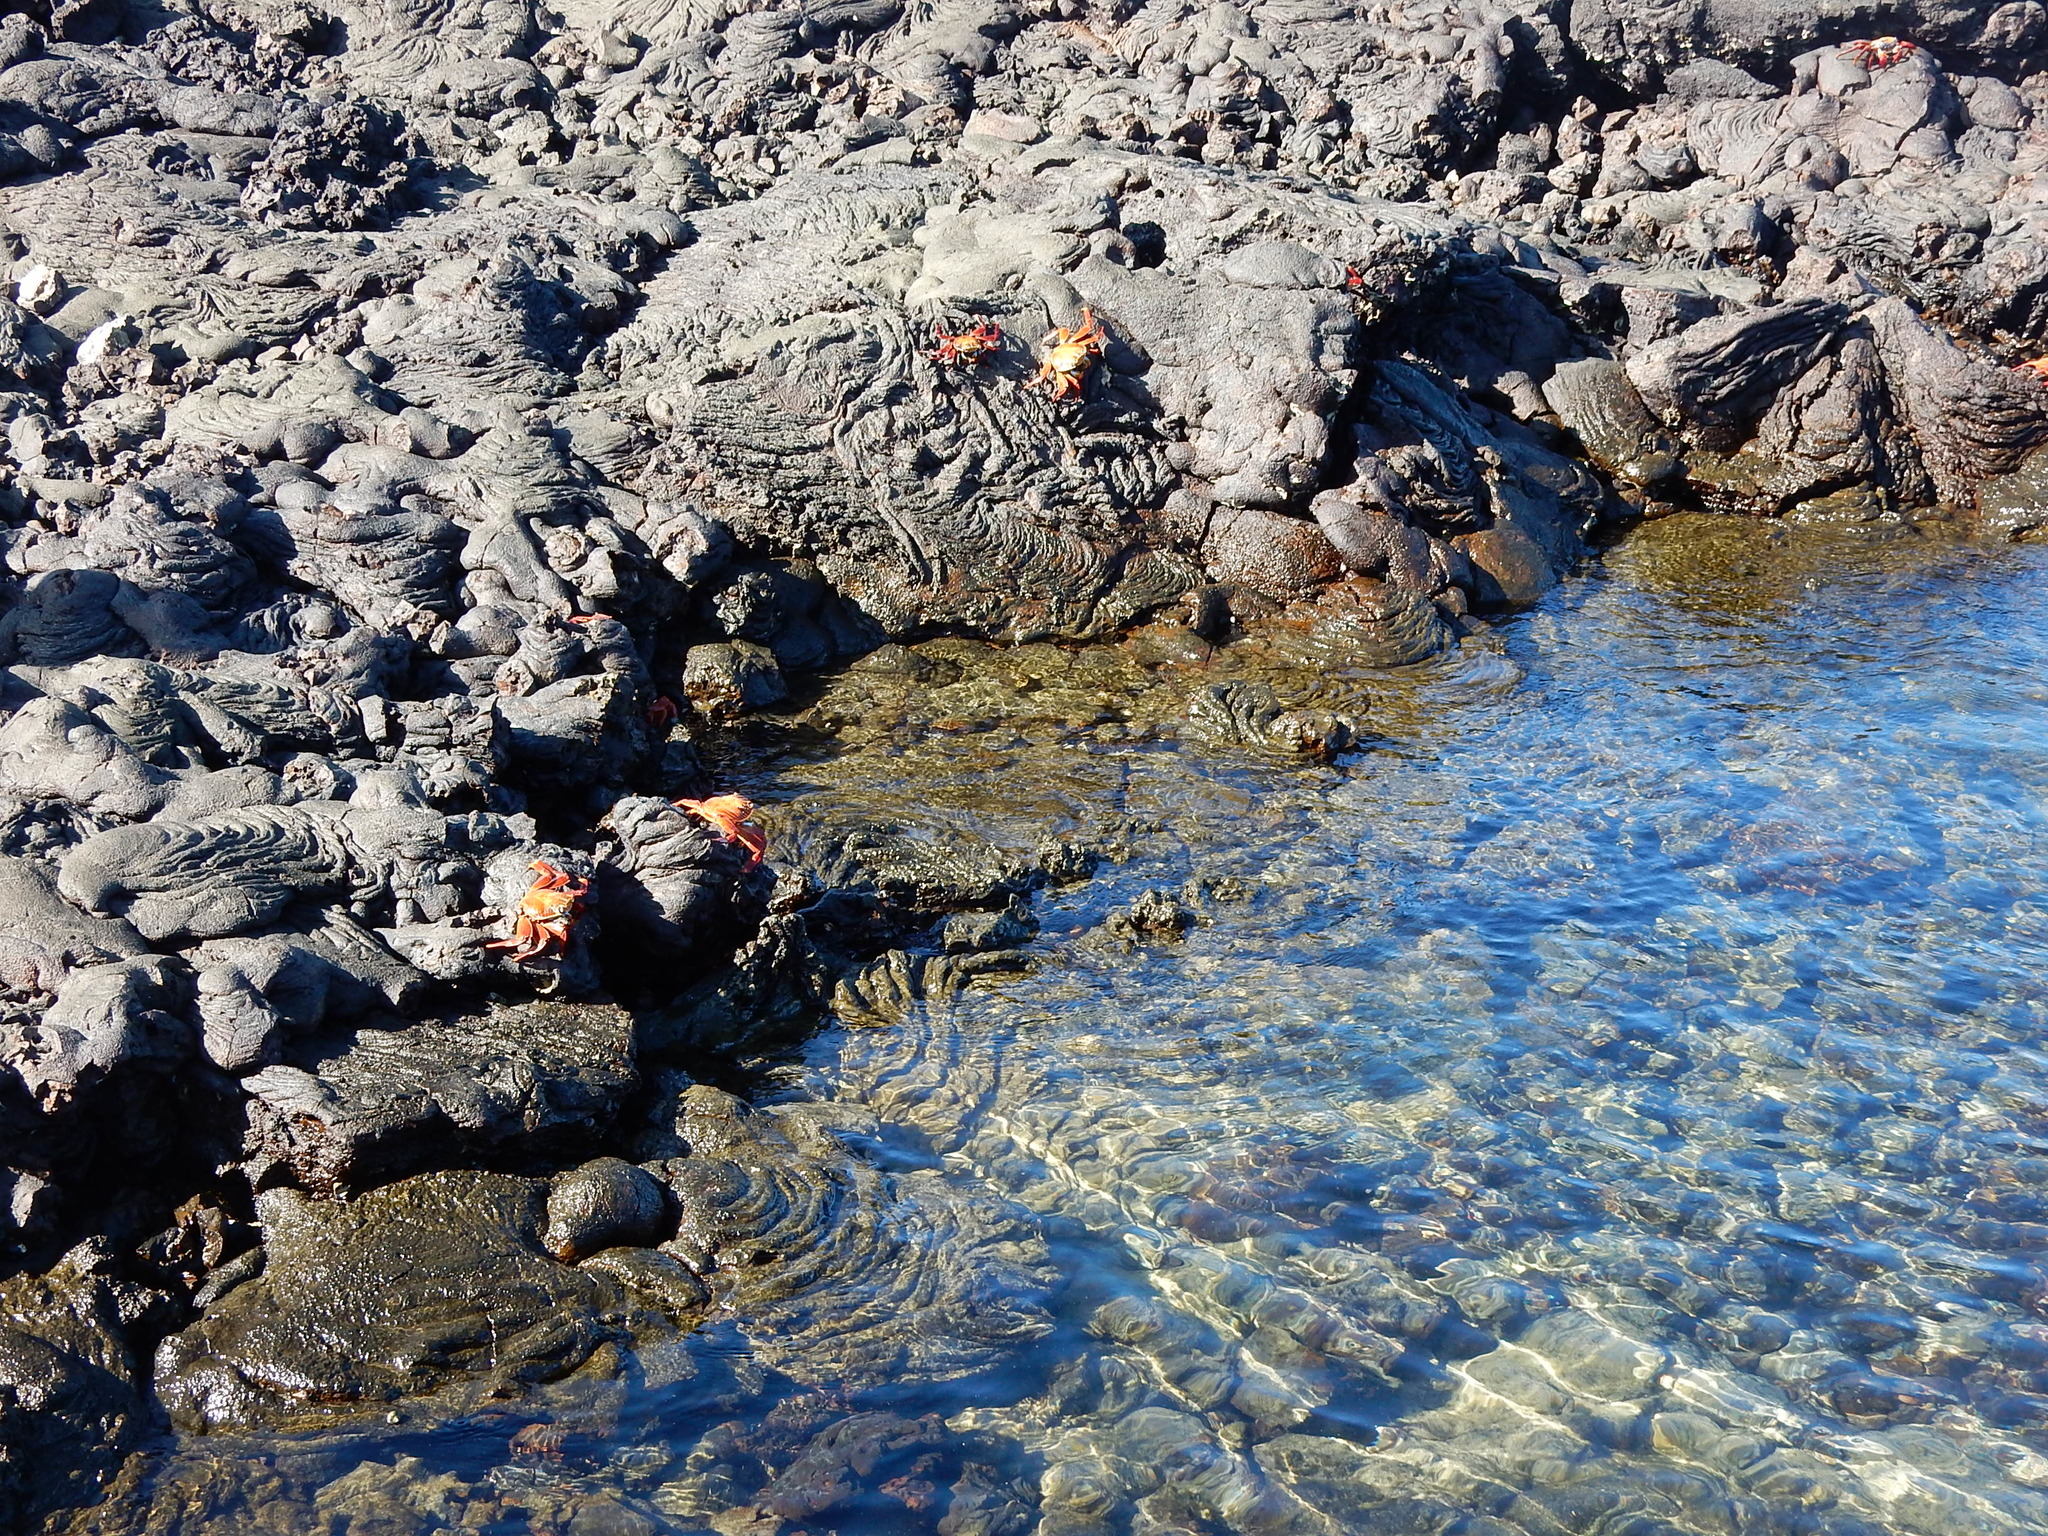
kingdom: Animalia
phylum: Arthropoda
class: Malacostraca
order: Decapoda
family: Grapsidae
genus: Grapsus
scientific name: Grapsus grapsus
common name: Sally lightfoot
